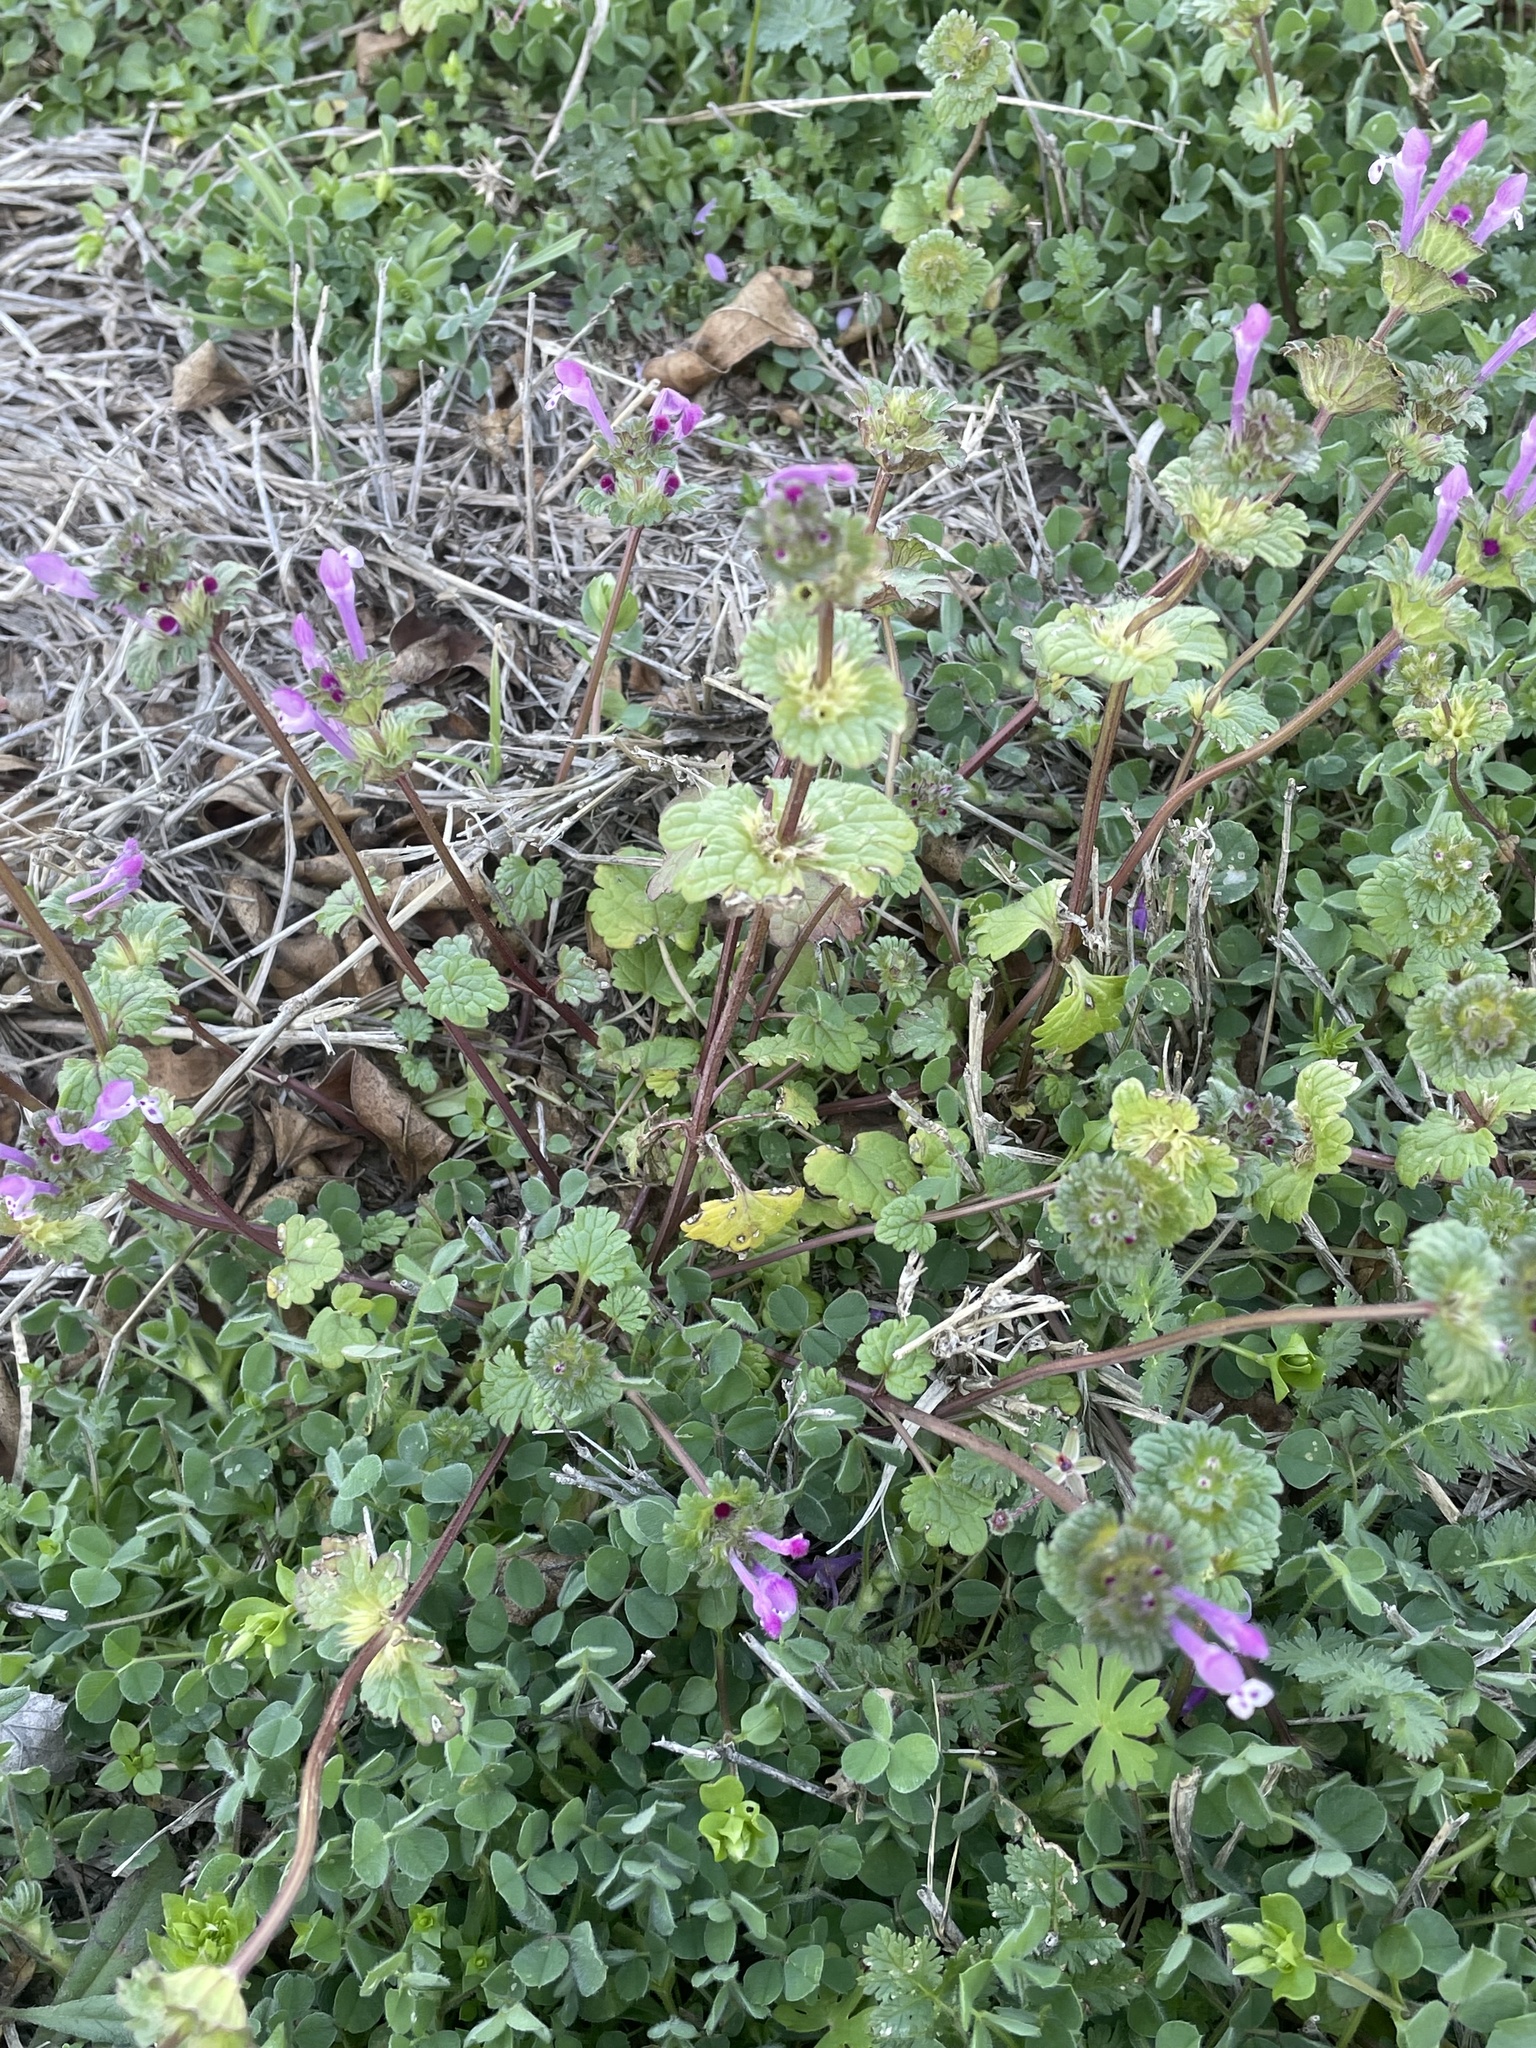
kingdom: Plantae
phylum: Tracheophyta
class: Magnoliopsida
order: Lamiales
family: Lamiaceae
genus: Lamium
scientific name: Lamium amplexicaule
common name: Henbit dead-nettle
